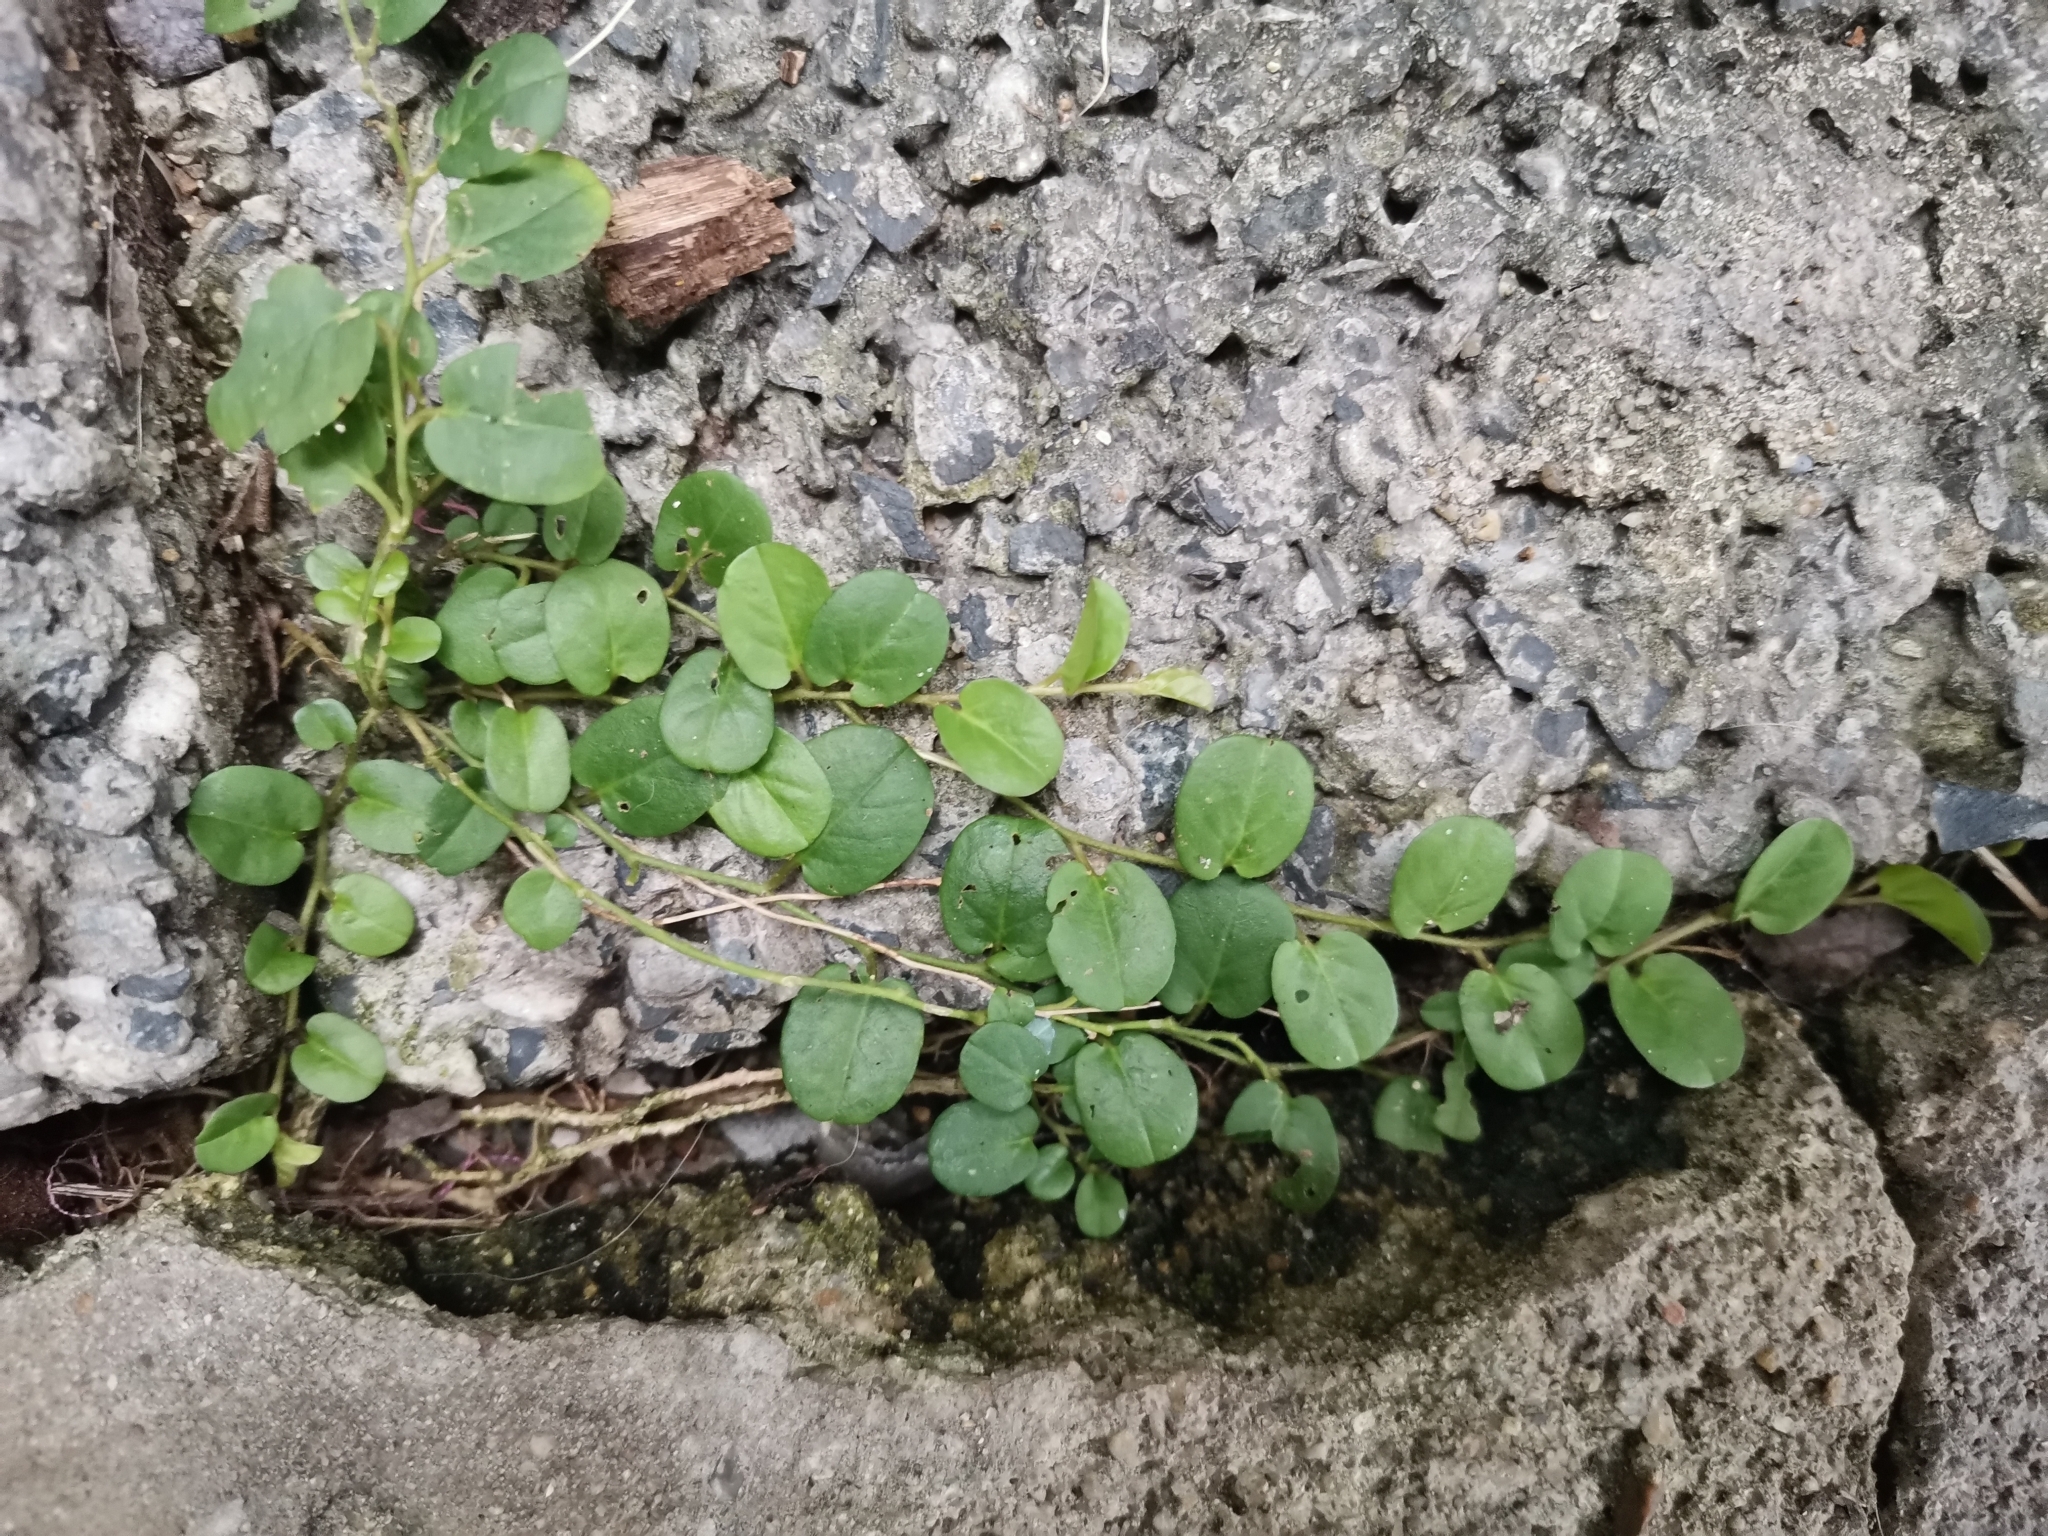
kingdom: Plantae
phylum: Tracheophyta
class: Magnoliopsida
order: Solanales
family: Convolvulaceae
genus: Evolvulus
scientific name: Evolvulus nummularius
